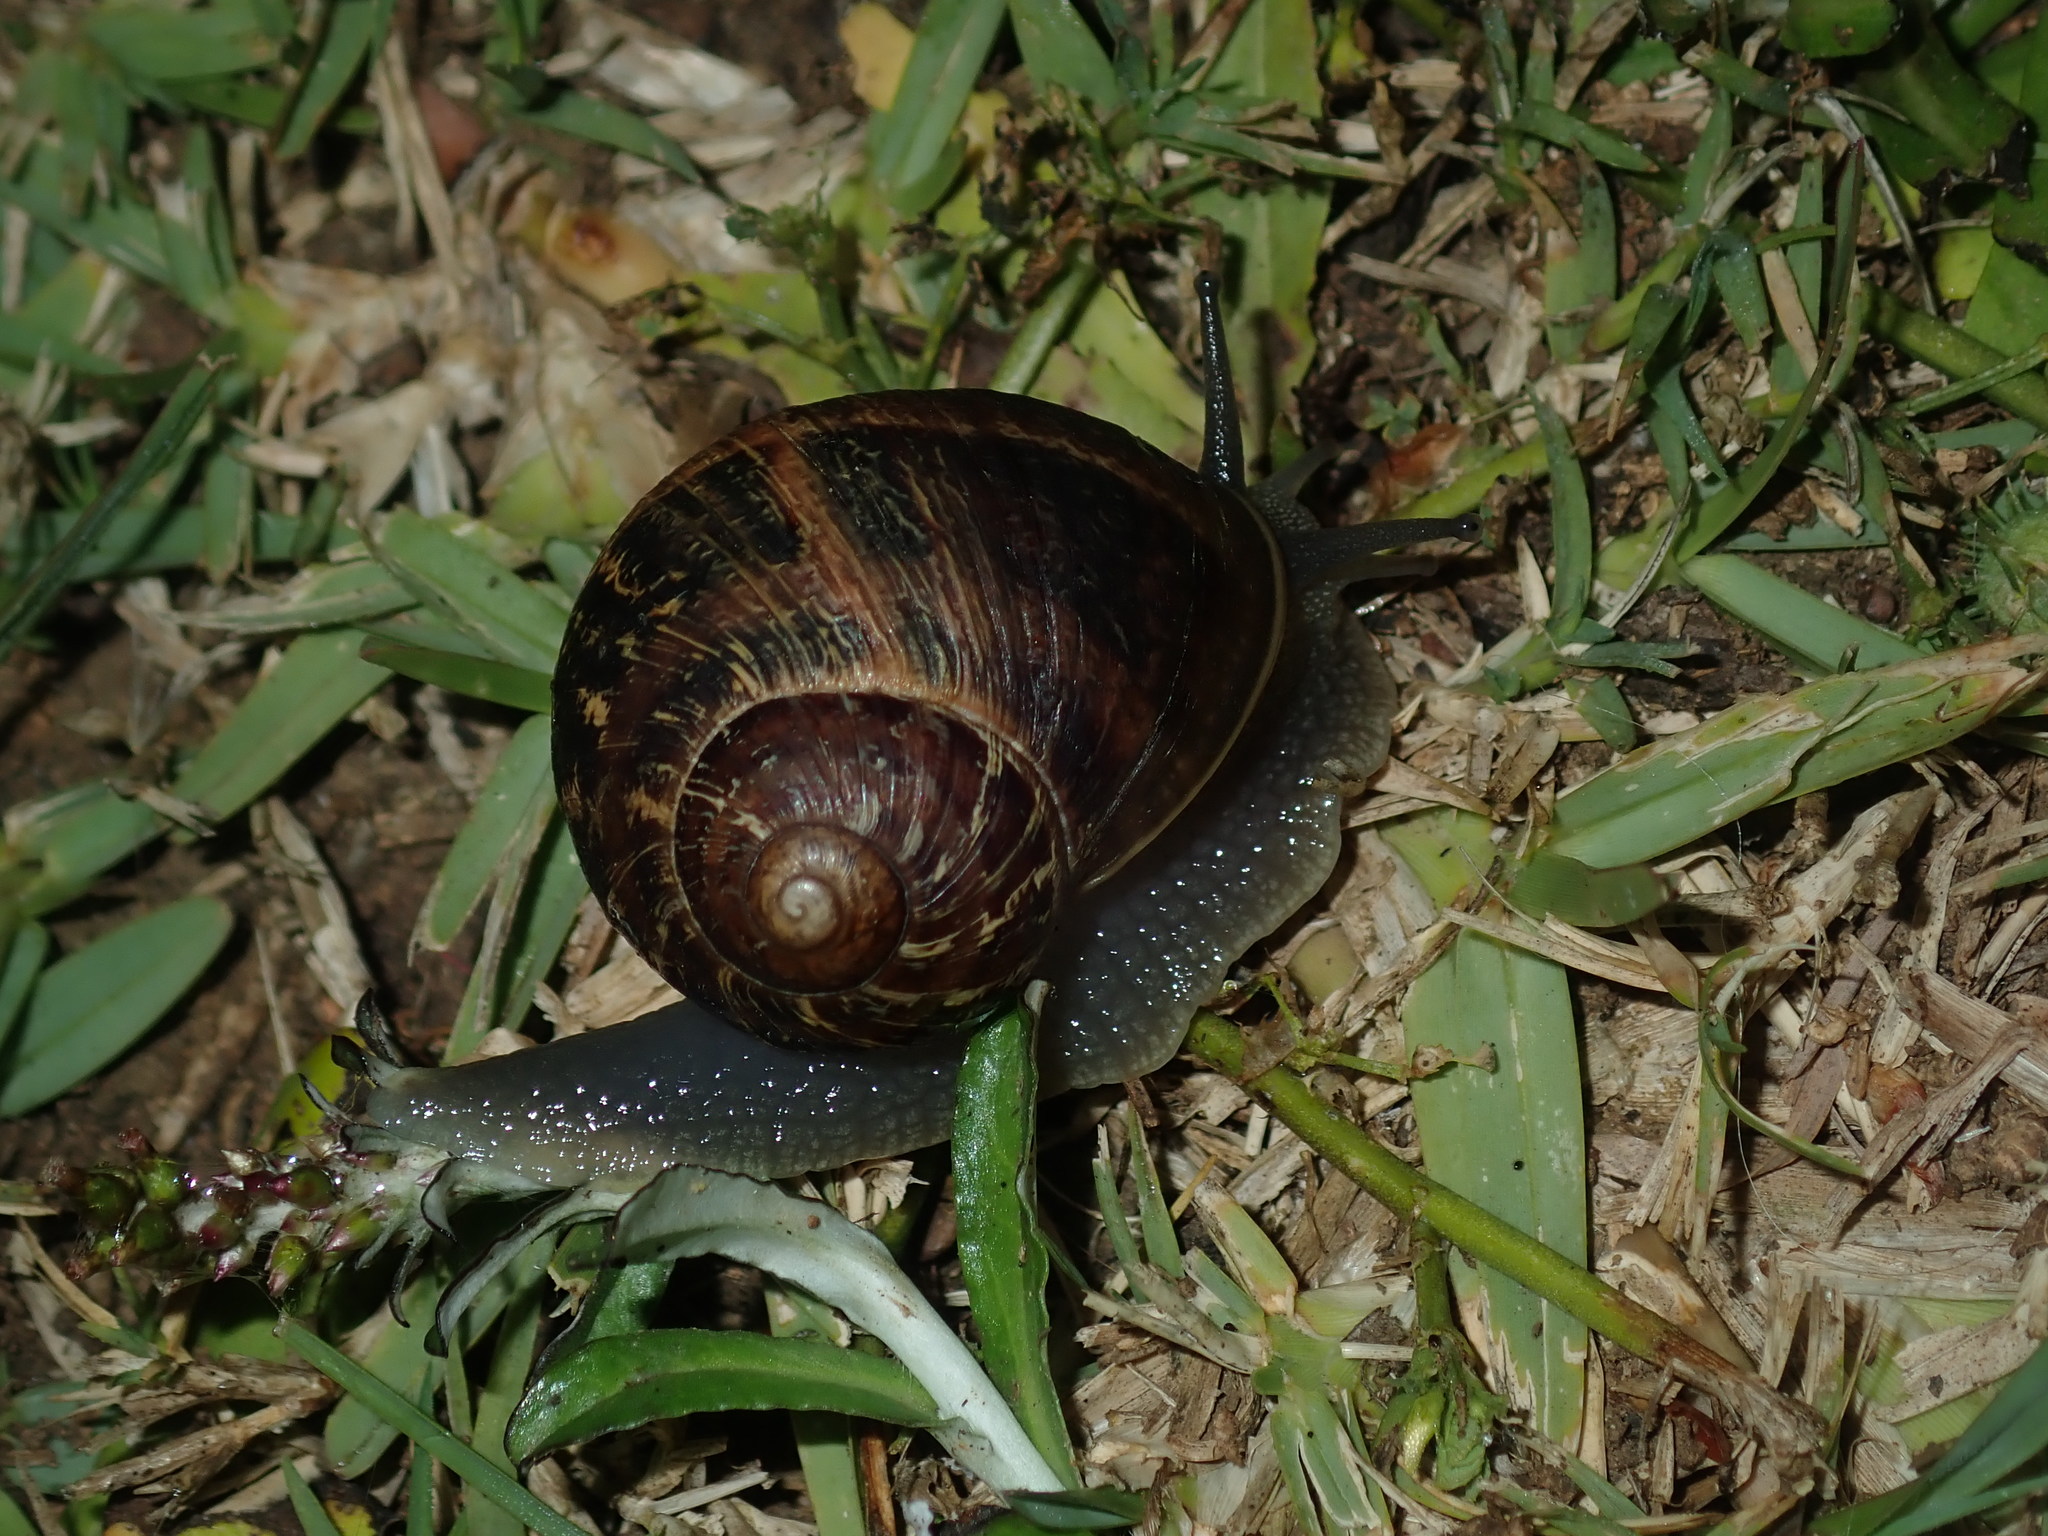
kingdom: Animalia
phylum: Mollusca
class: Gastropoda
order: Stylommatophora
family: Helicidae
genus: Cornu
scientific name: Cornu aspersum
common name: Brown garden snail
